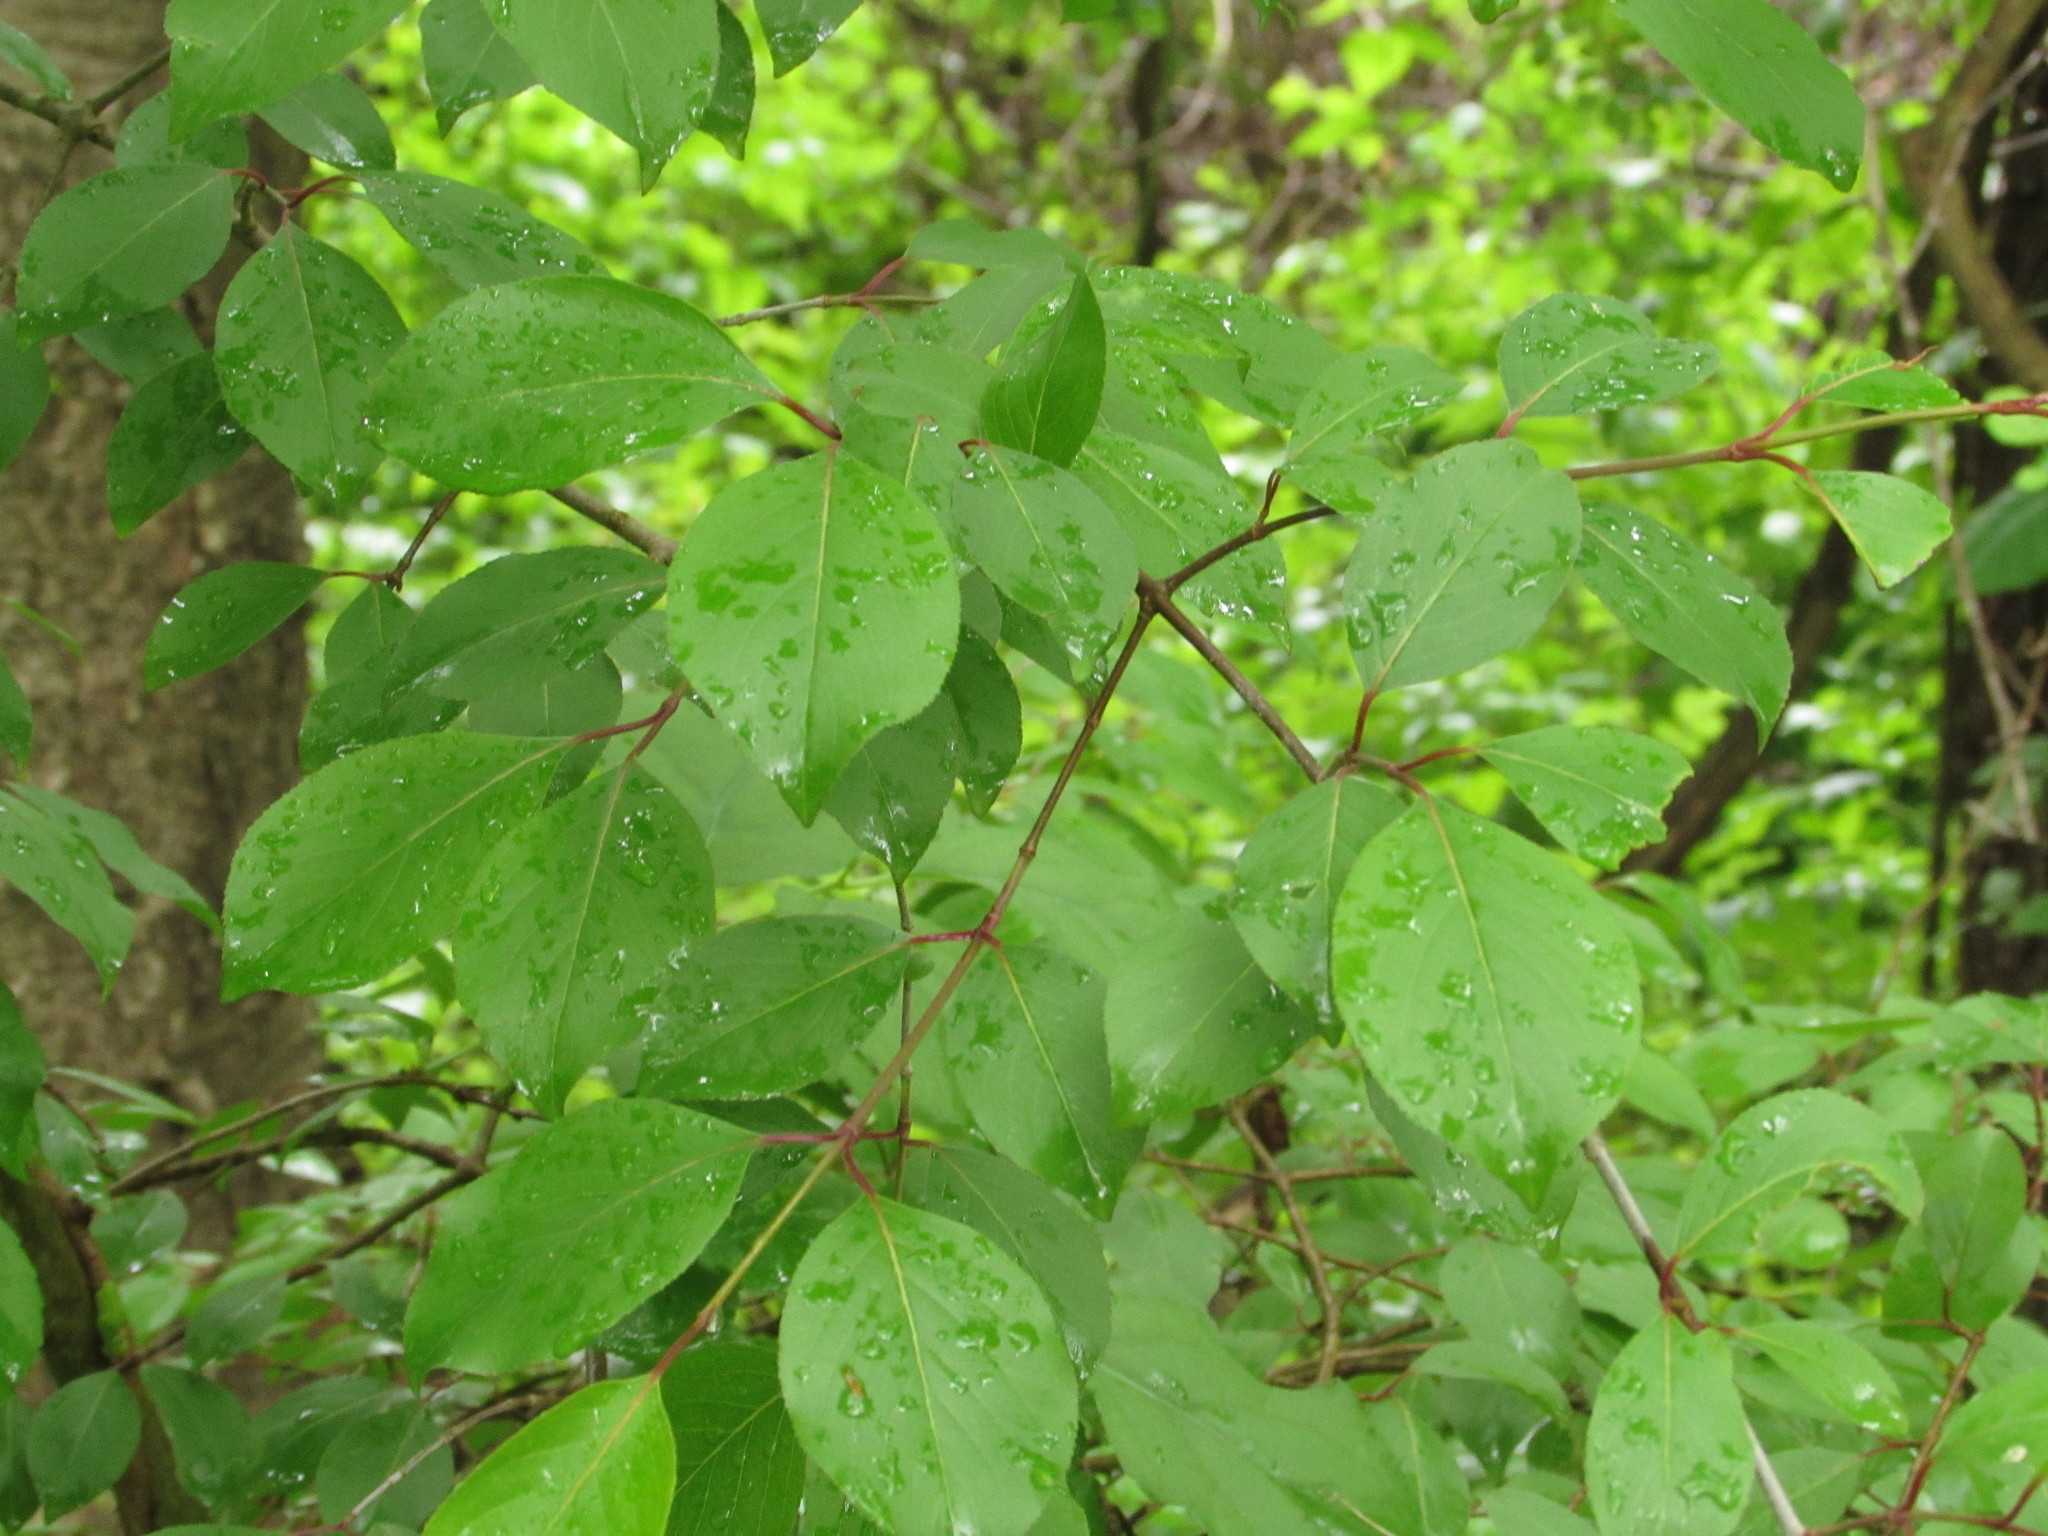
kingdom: Plantae
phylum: Tracheophyta
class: Magnoliopsida
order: Dipsacales
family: Viburnaceae
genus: Viburnum
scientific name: Viburnum prunifolium
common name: Black haw
